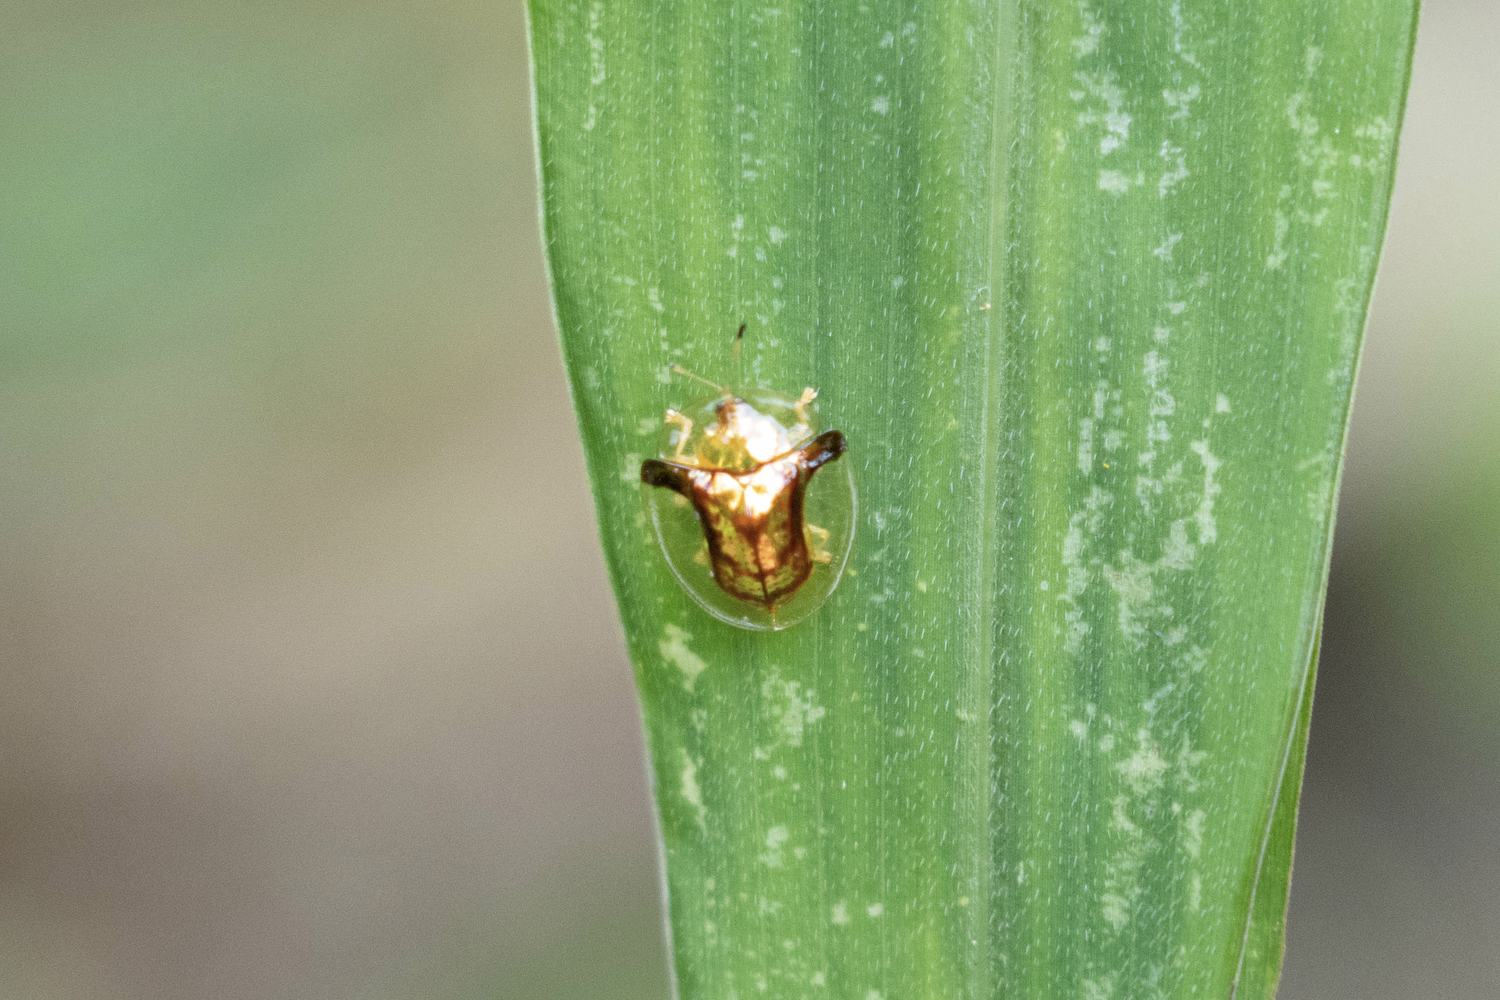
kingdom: Animalia
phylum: Arthropoda
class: Insecta
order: Coleoptera
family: Chrysomelidae
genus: Aspidimorpha
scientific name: Aspidimorpha furcata
